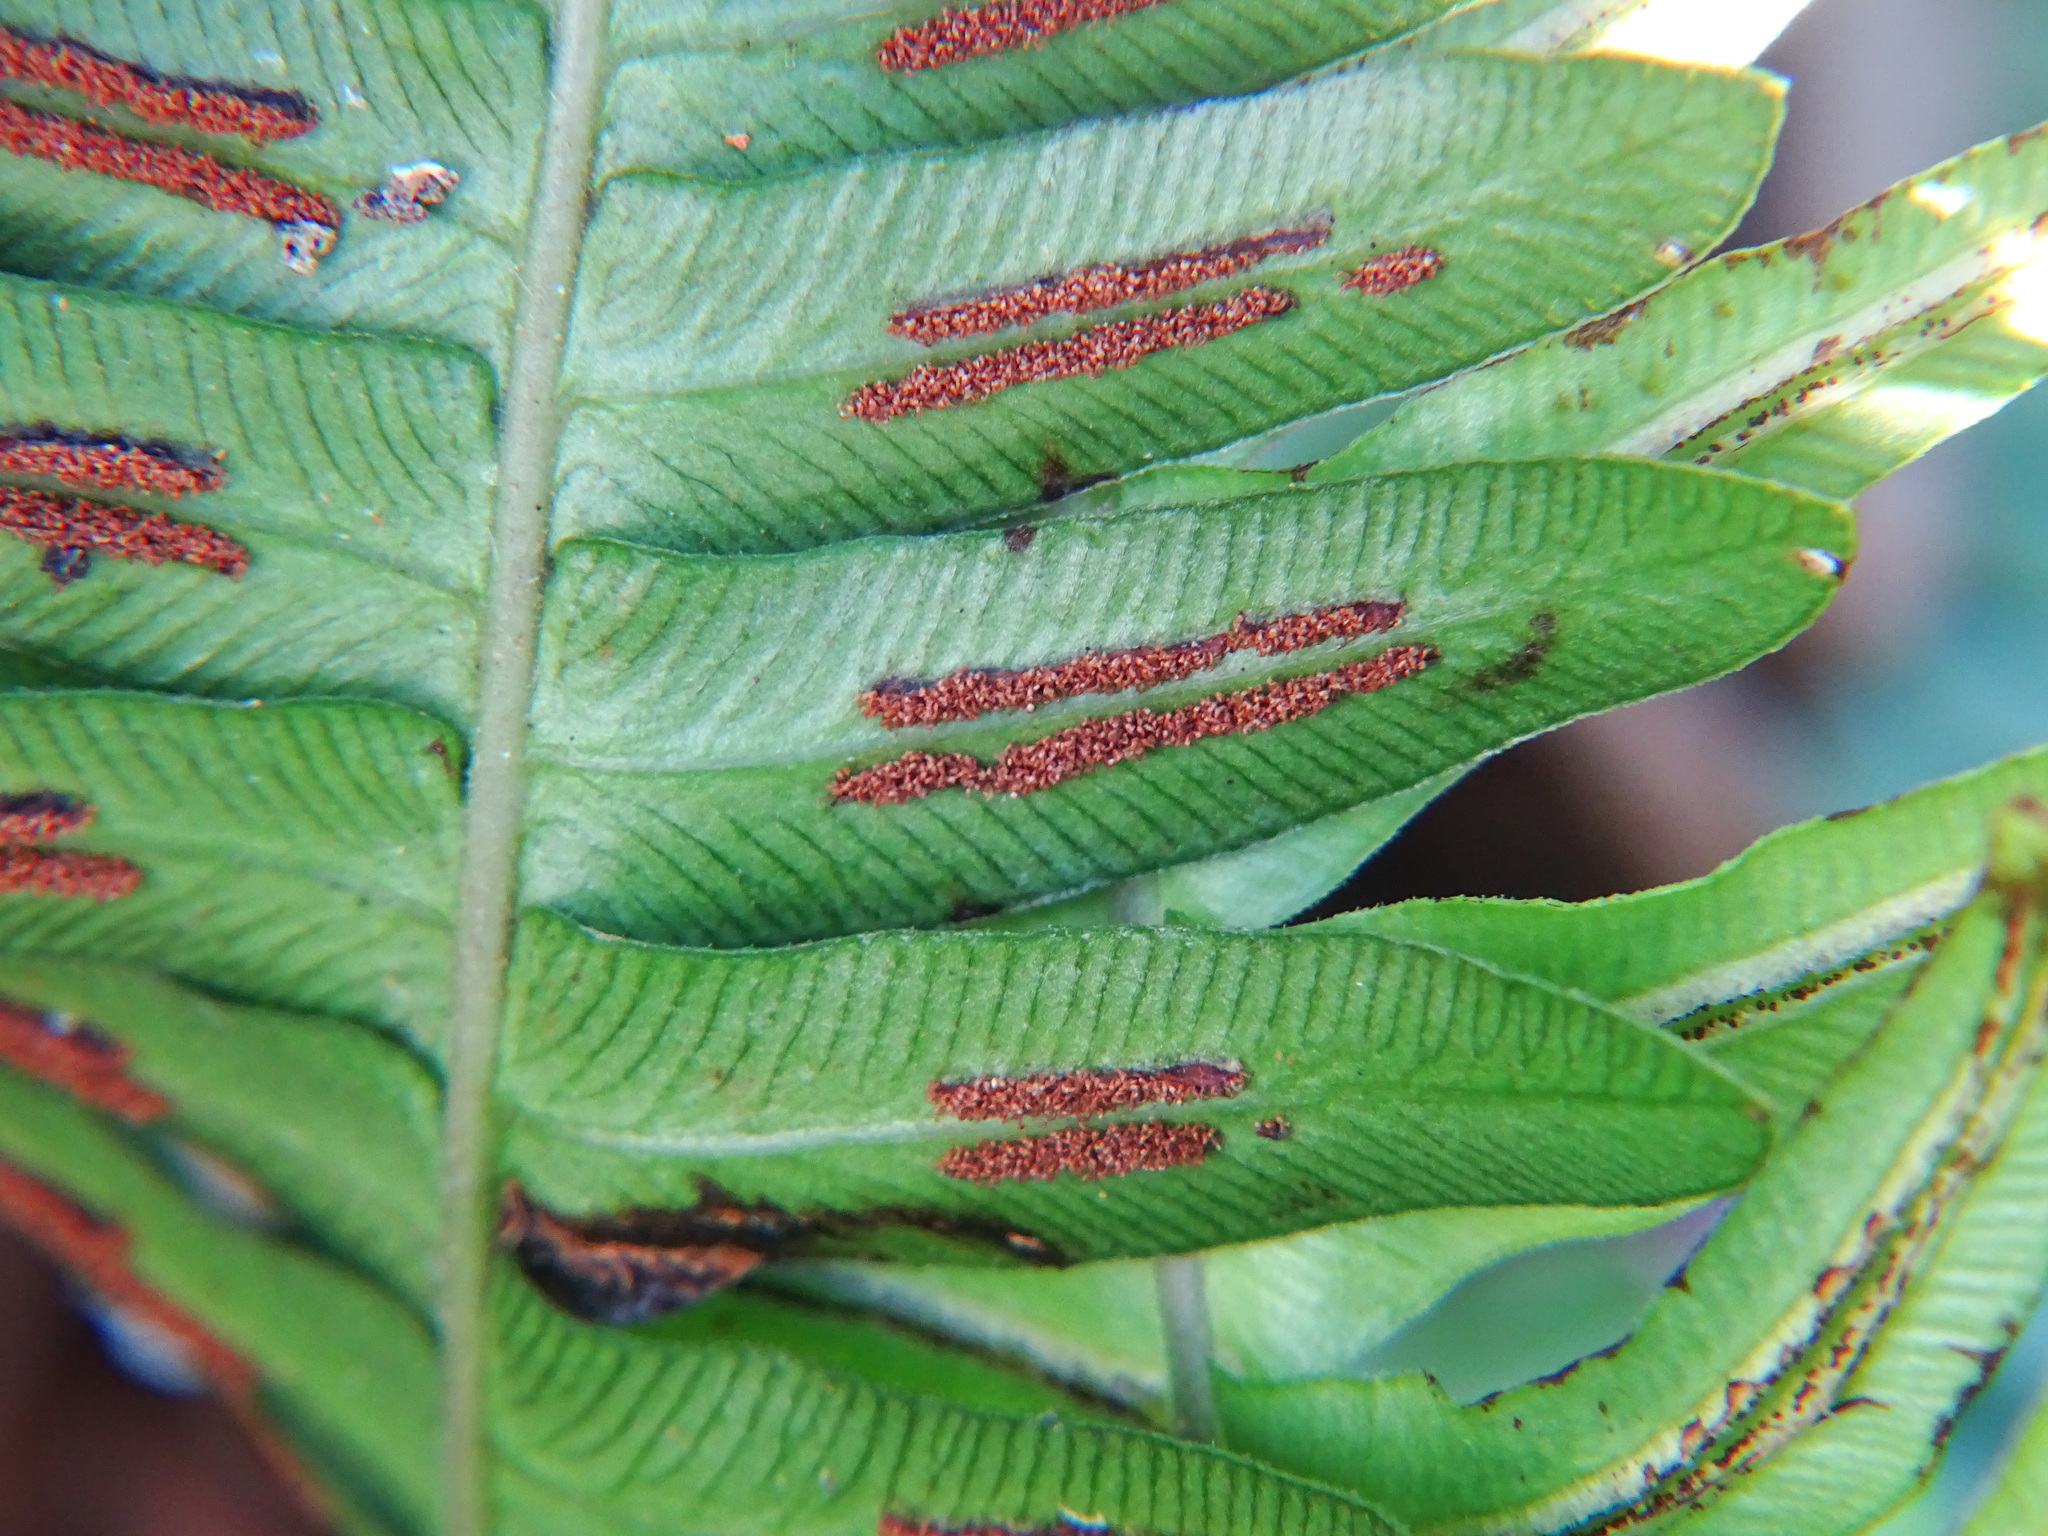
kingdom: Plantae
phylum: Tracheophyta
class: Polypodiopsida
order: Polypodiales
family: Blechnaceae
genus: Blechnum
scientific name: Blechnum appendiculatum
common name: Palm fern
